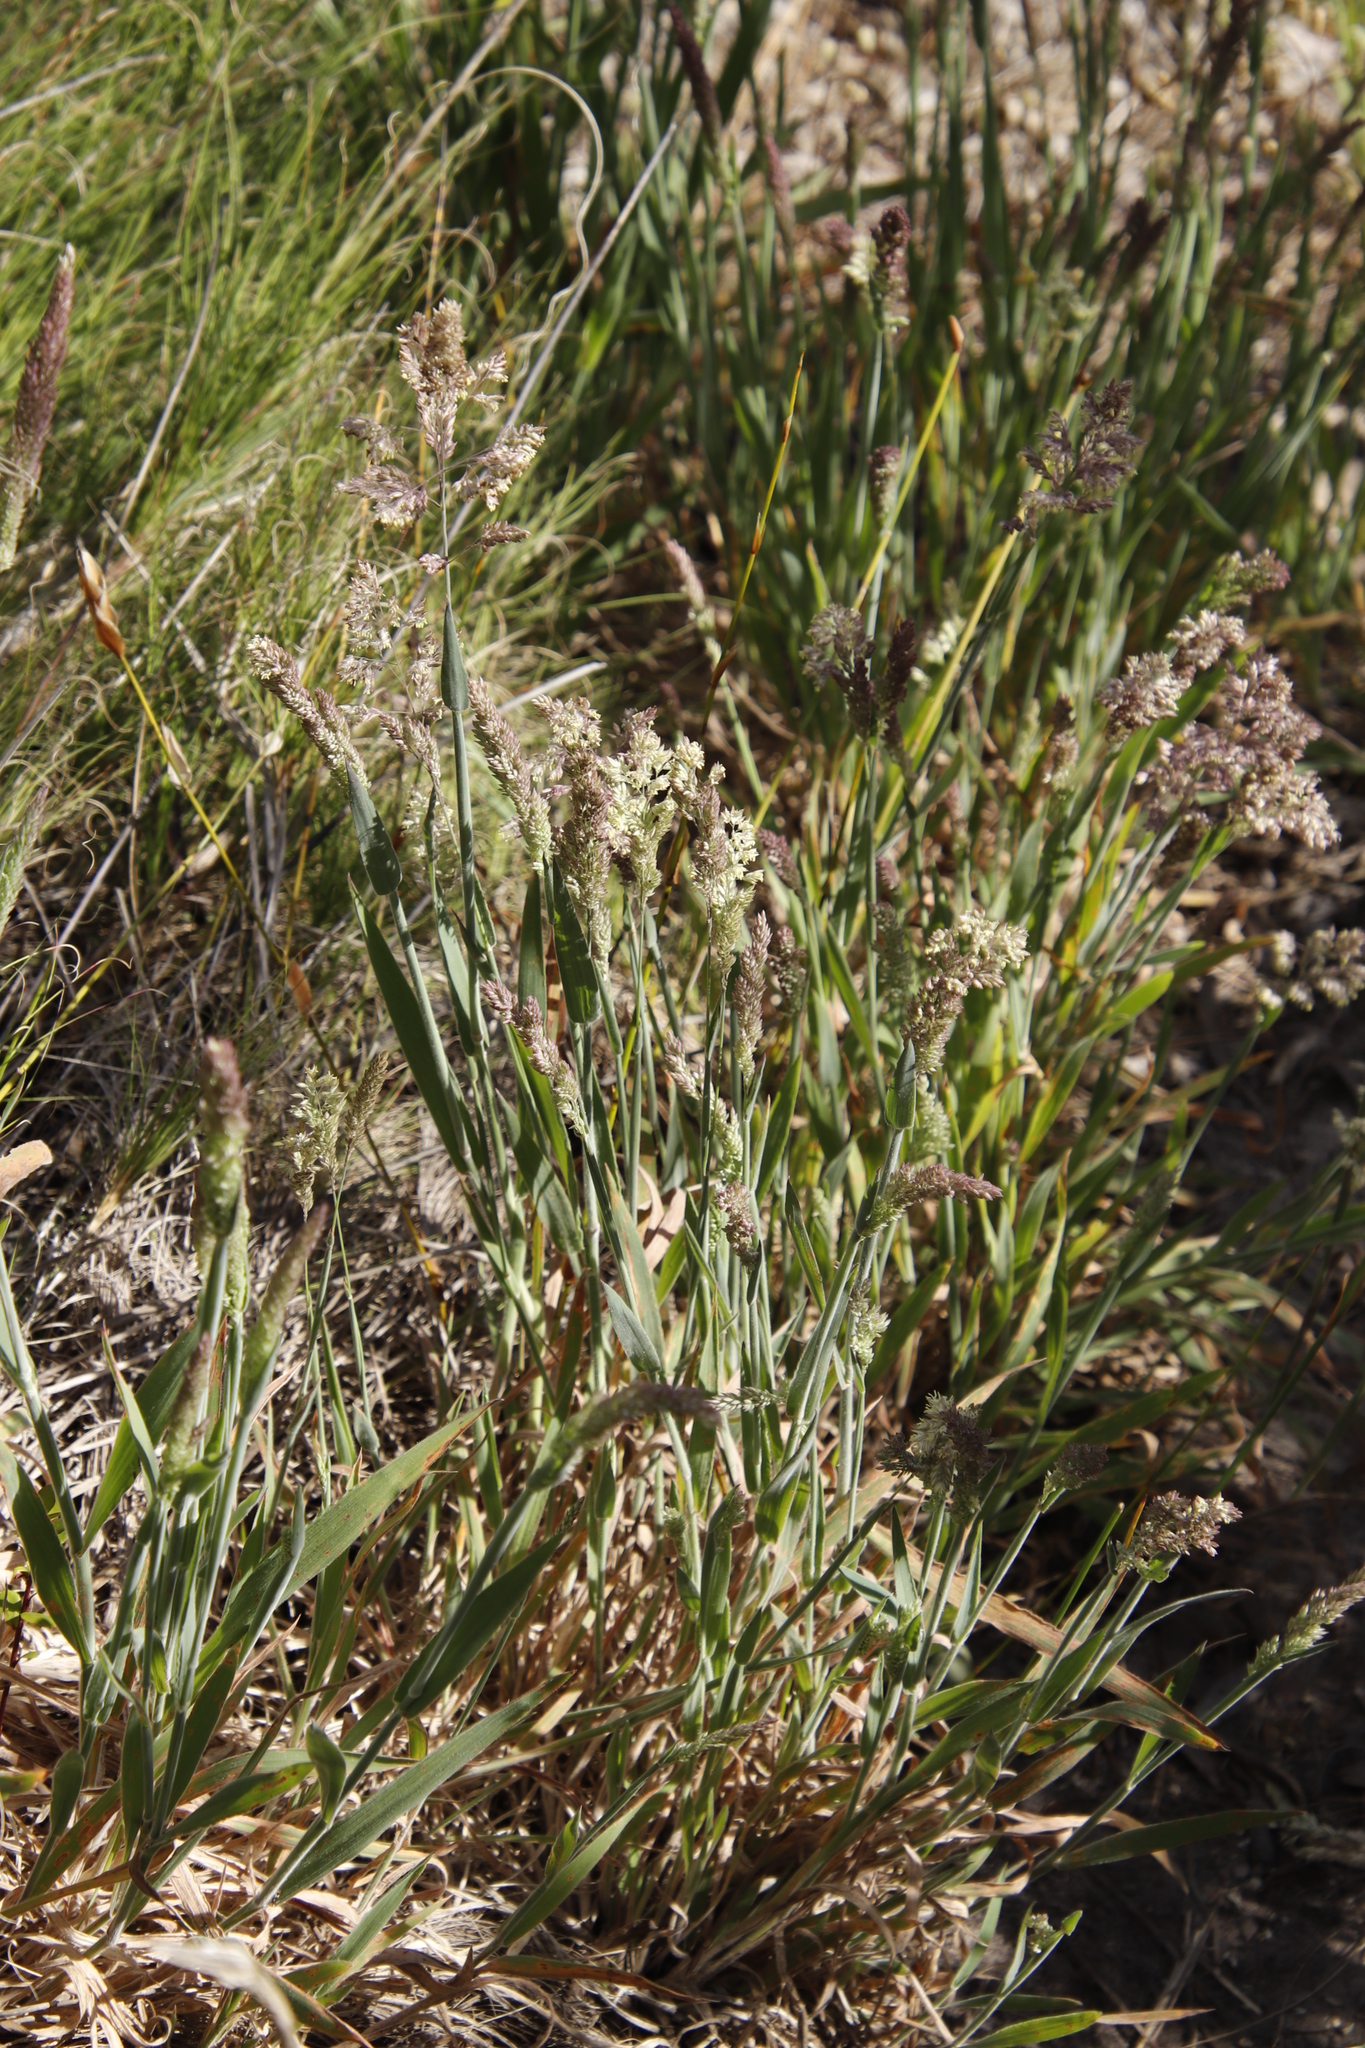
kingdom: Plantae
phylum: Tracheophyta
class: Liliopsida
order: Poales
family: Poaceae
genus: Holcus
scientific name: Holcus lanatus
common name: Yorkshire-fog
